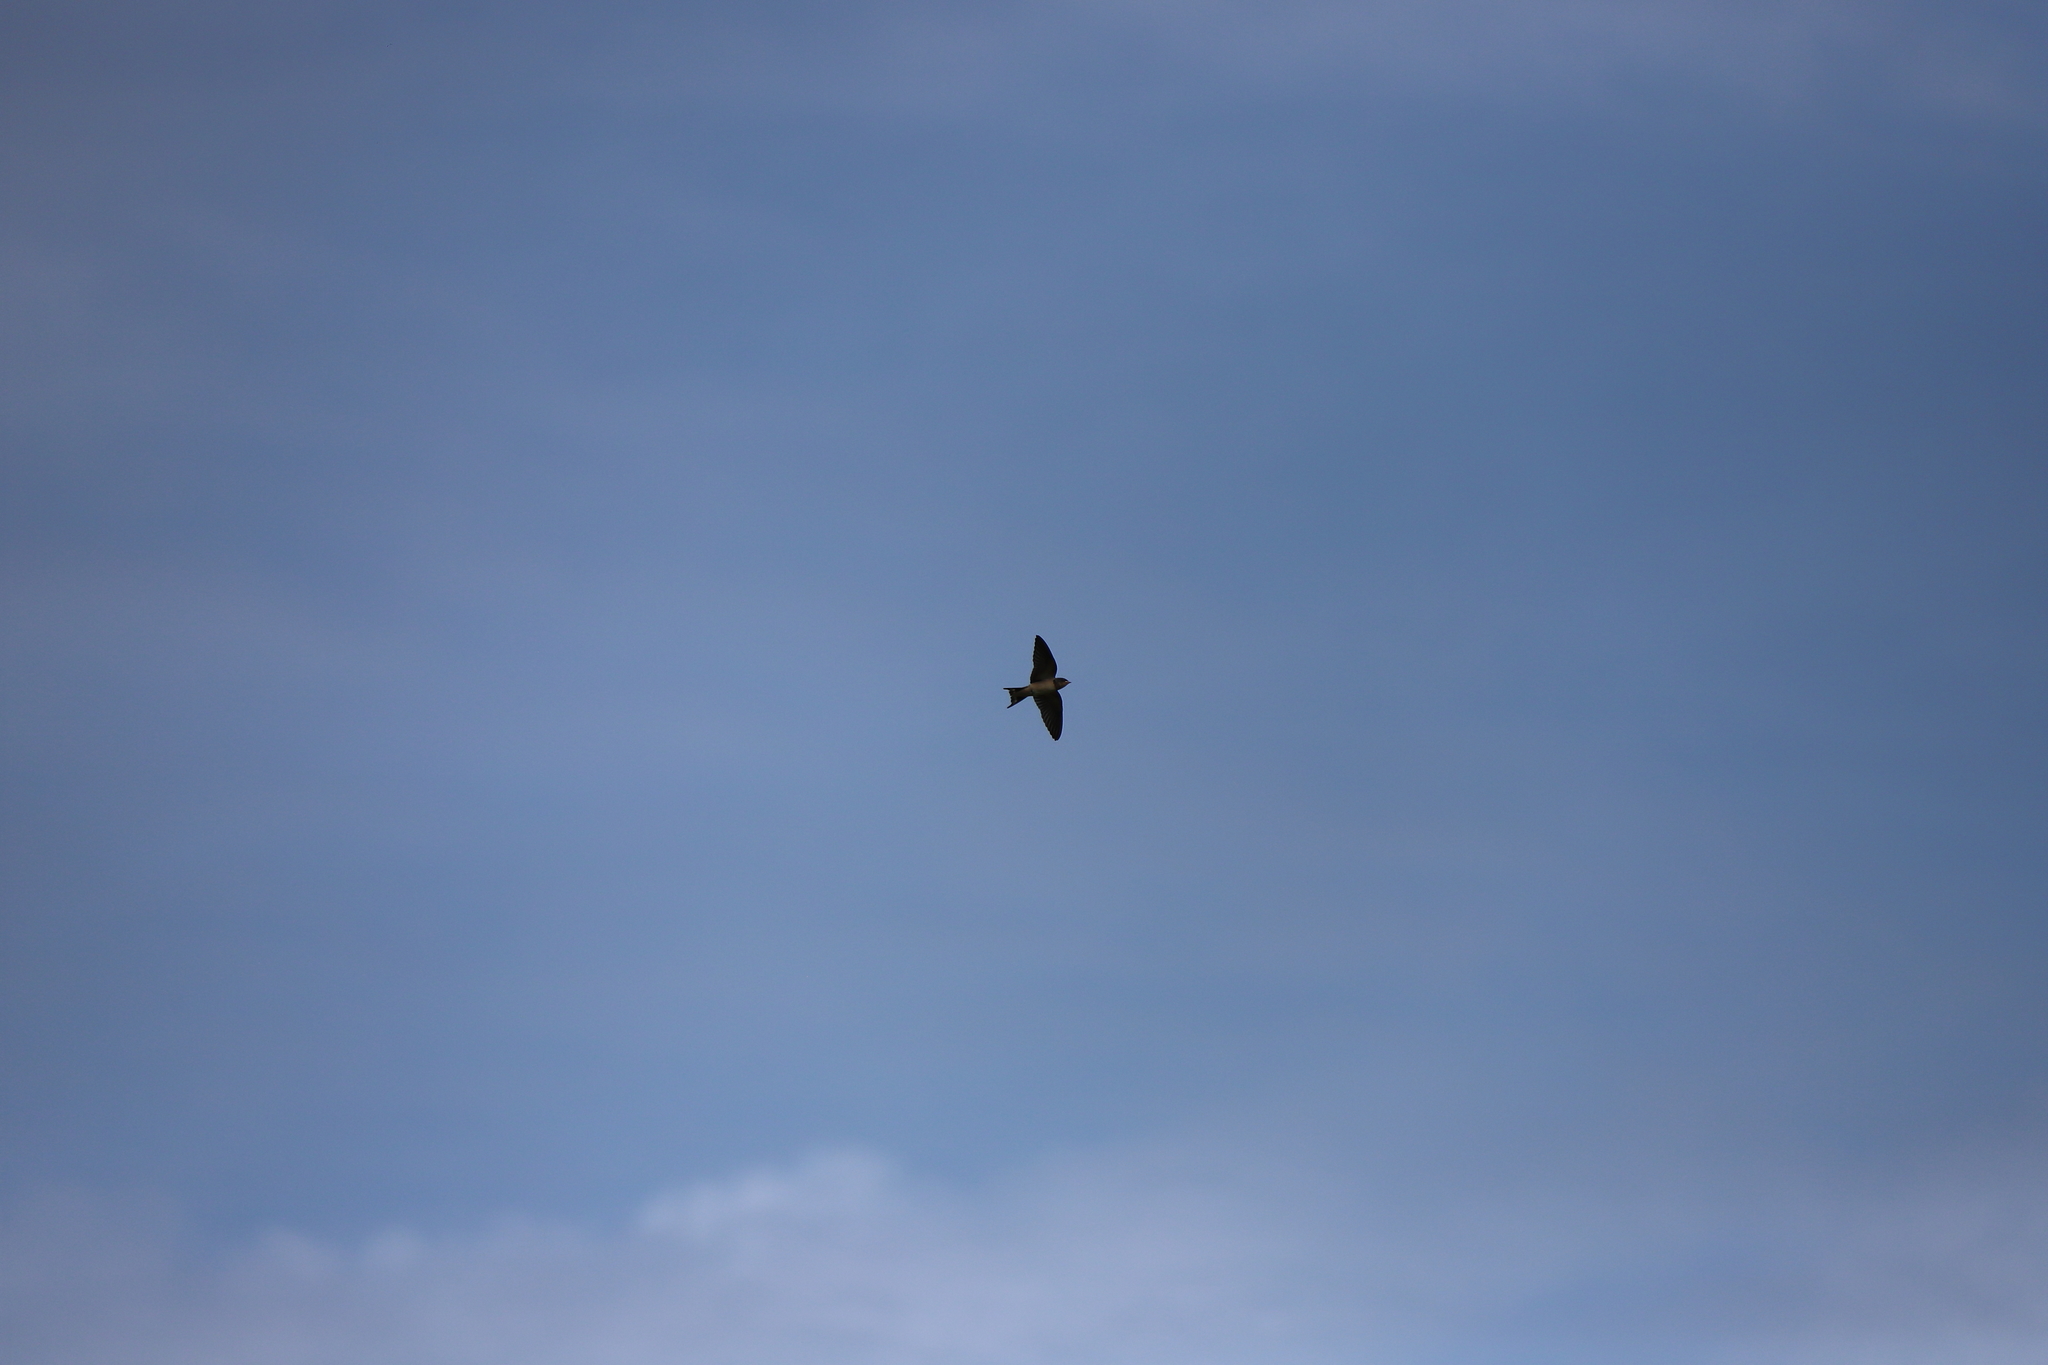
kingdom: Animalia
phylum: Chordata
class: Aves
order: Passeriformes
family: Hirundinidae
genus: Hirundo
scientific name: Hirundo rustica
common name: Barn swallow
